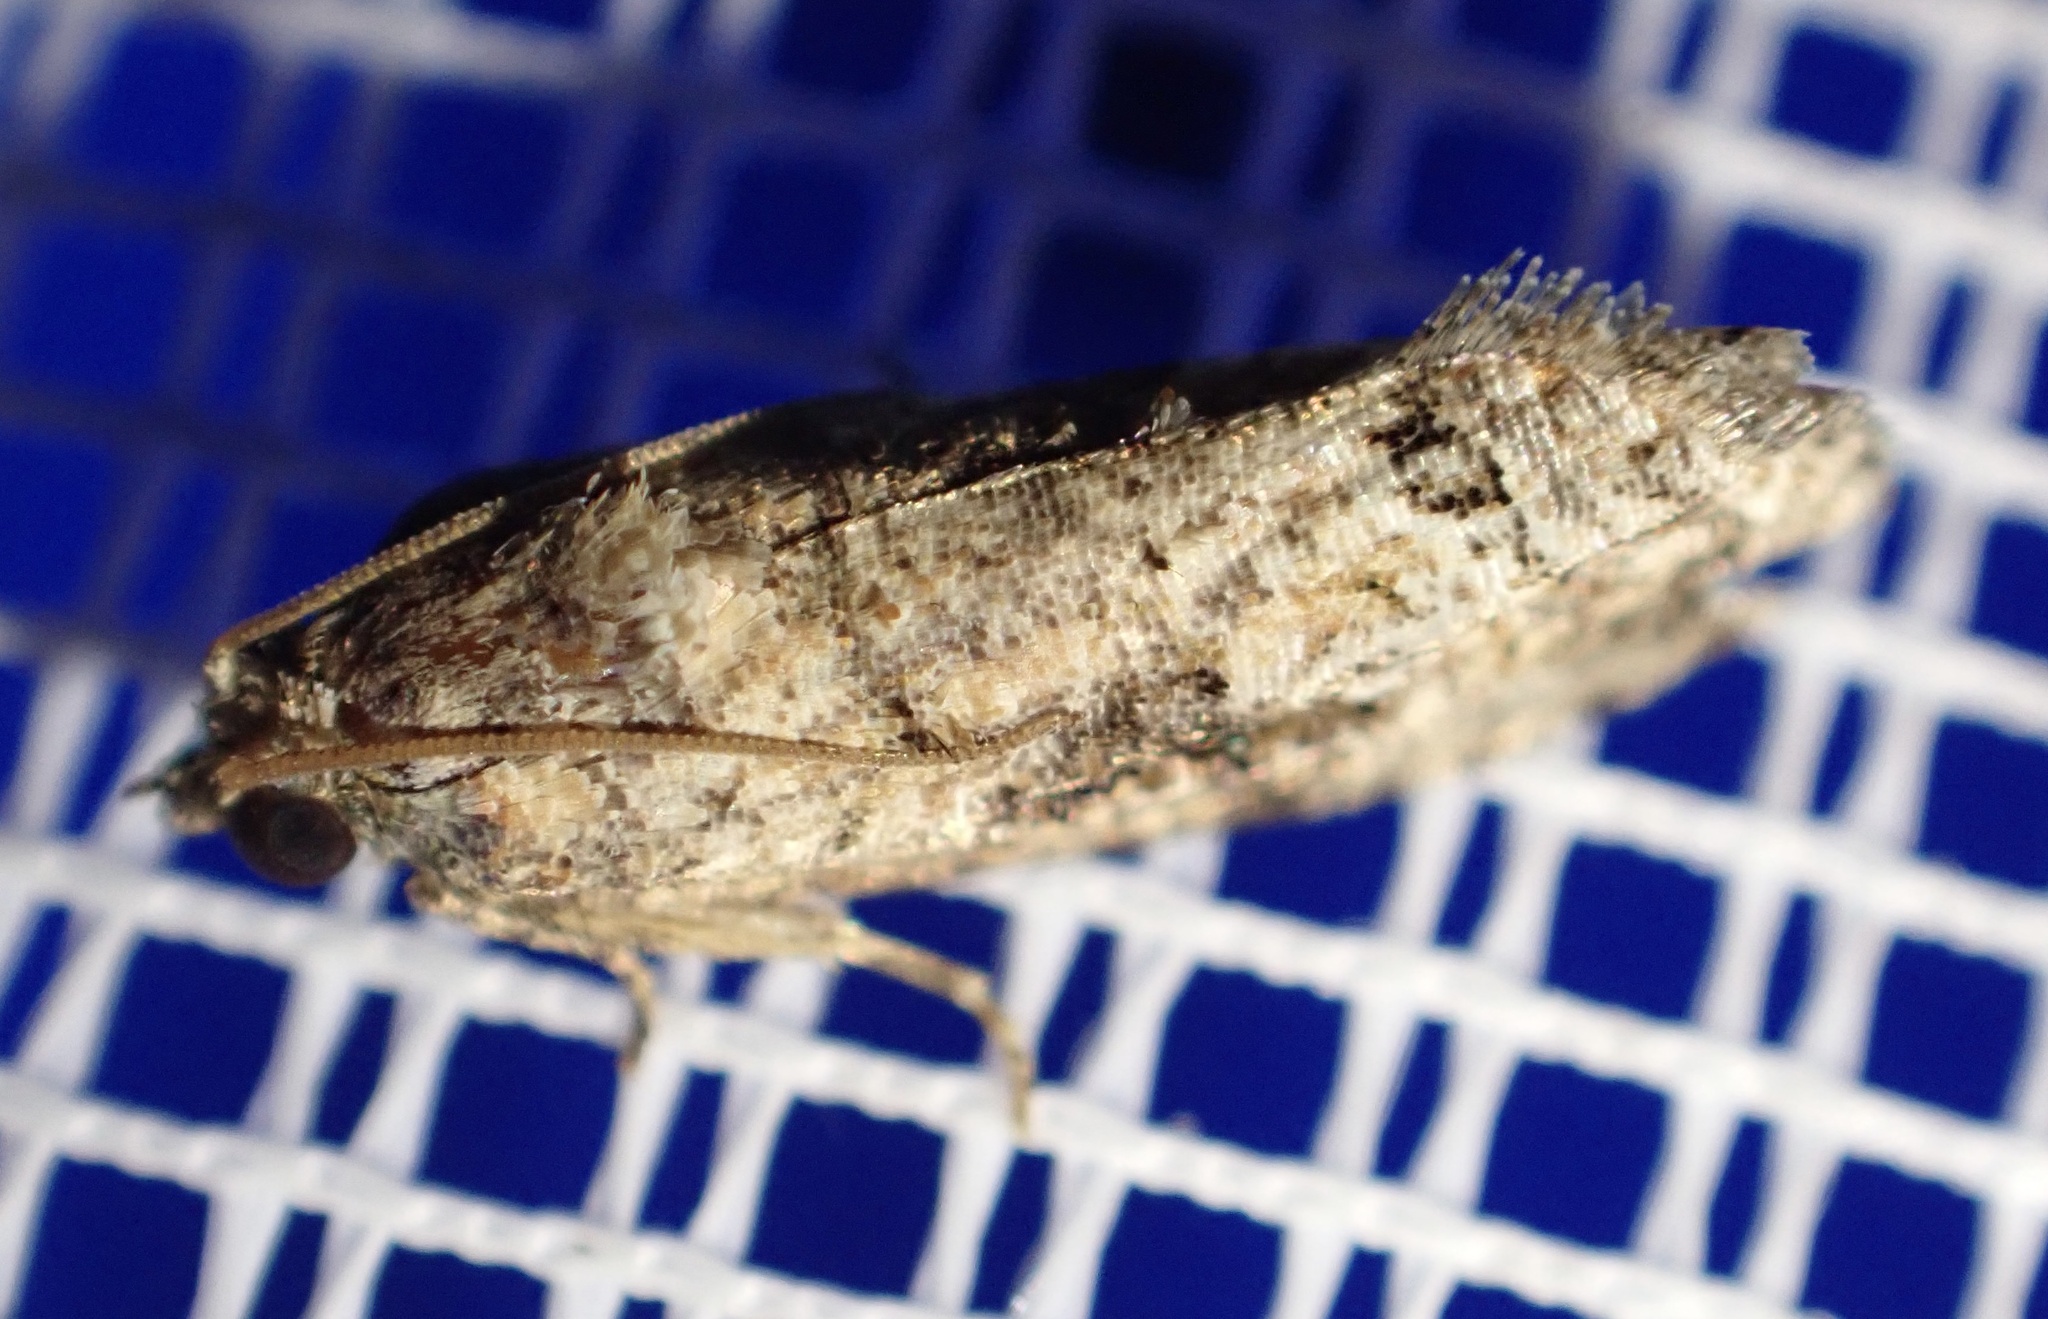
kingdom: Animalia
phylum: Arthropoda
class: Insecta
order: Lepidoptera
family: Tortricidae
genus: Thaumatotibia
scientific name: Thaumatotibia leucotreta
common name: False codling moth
